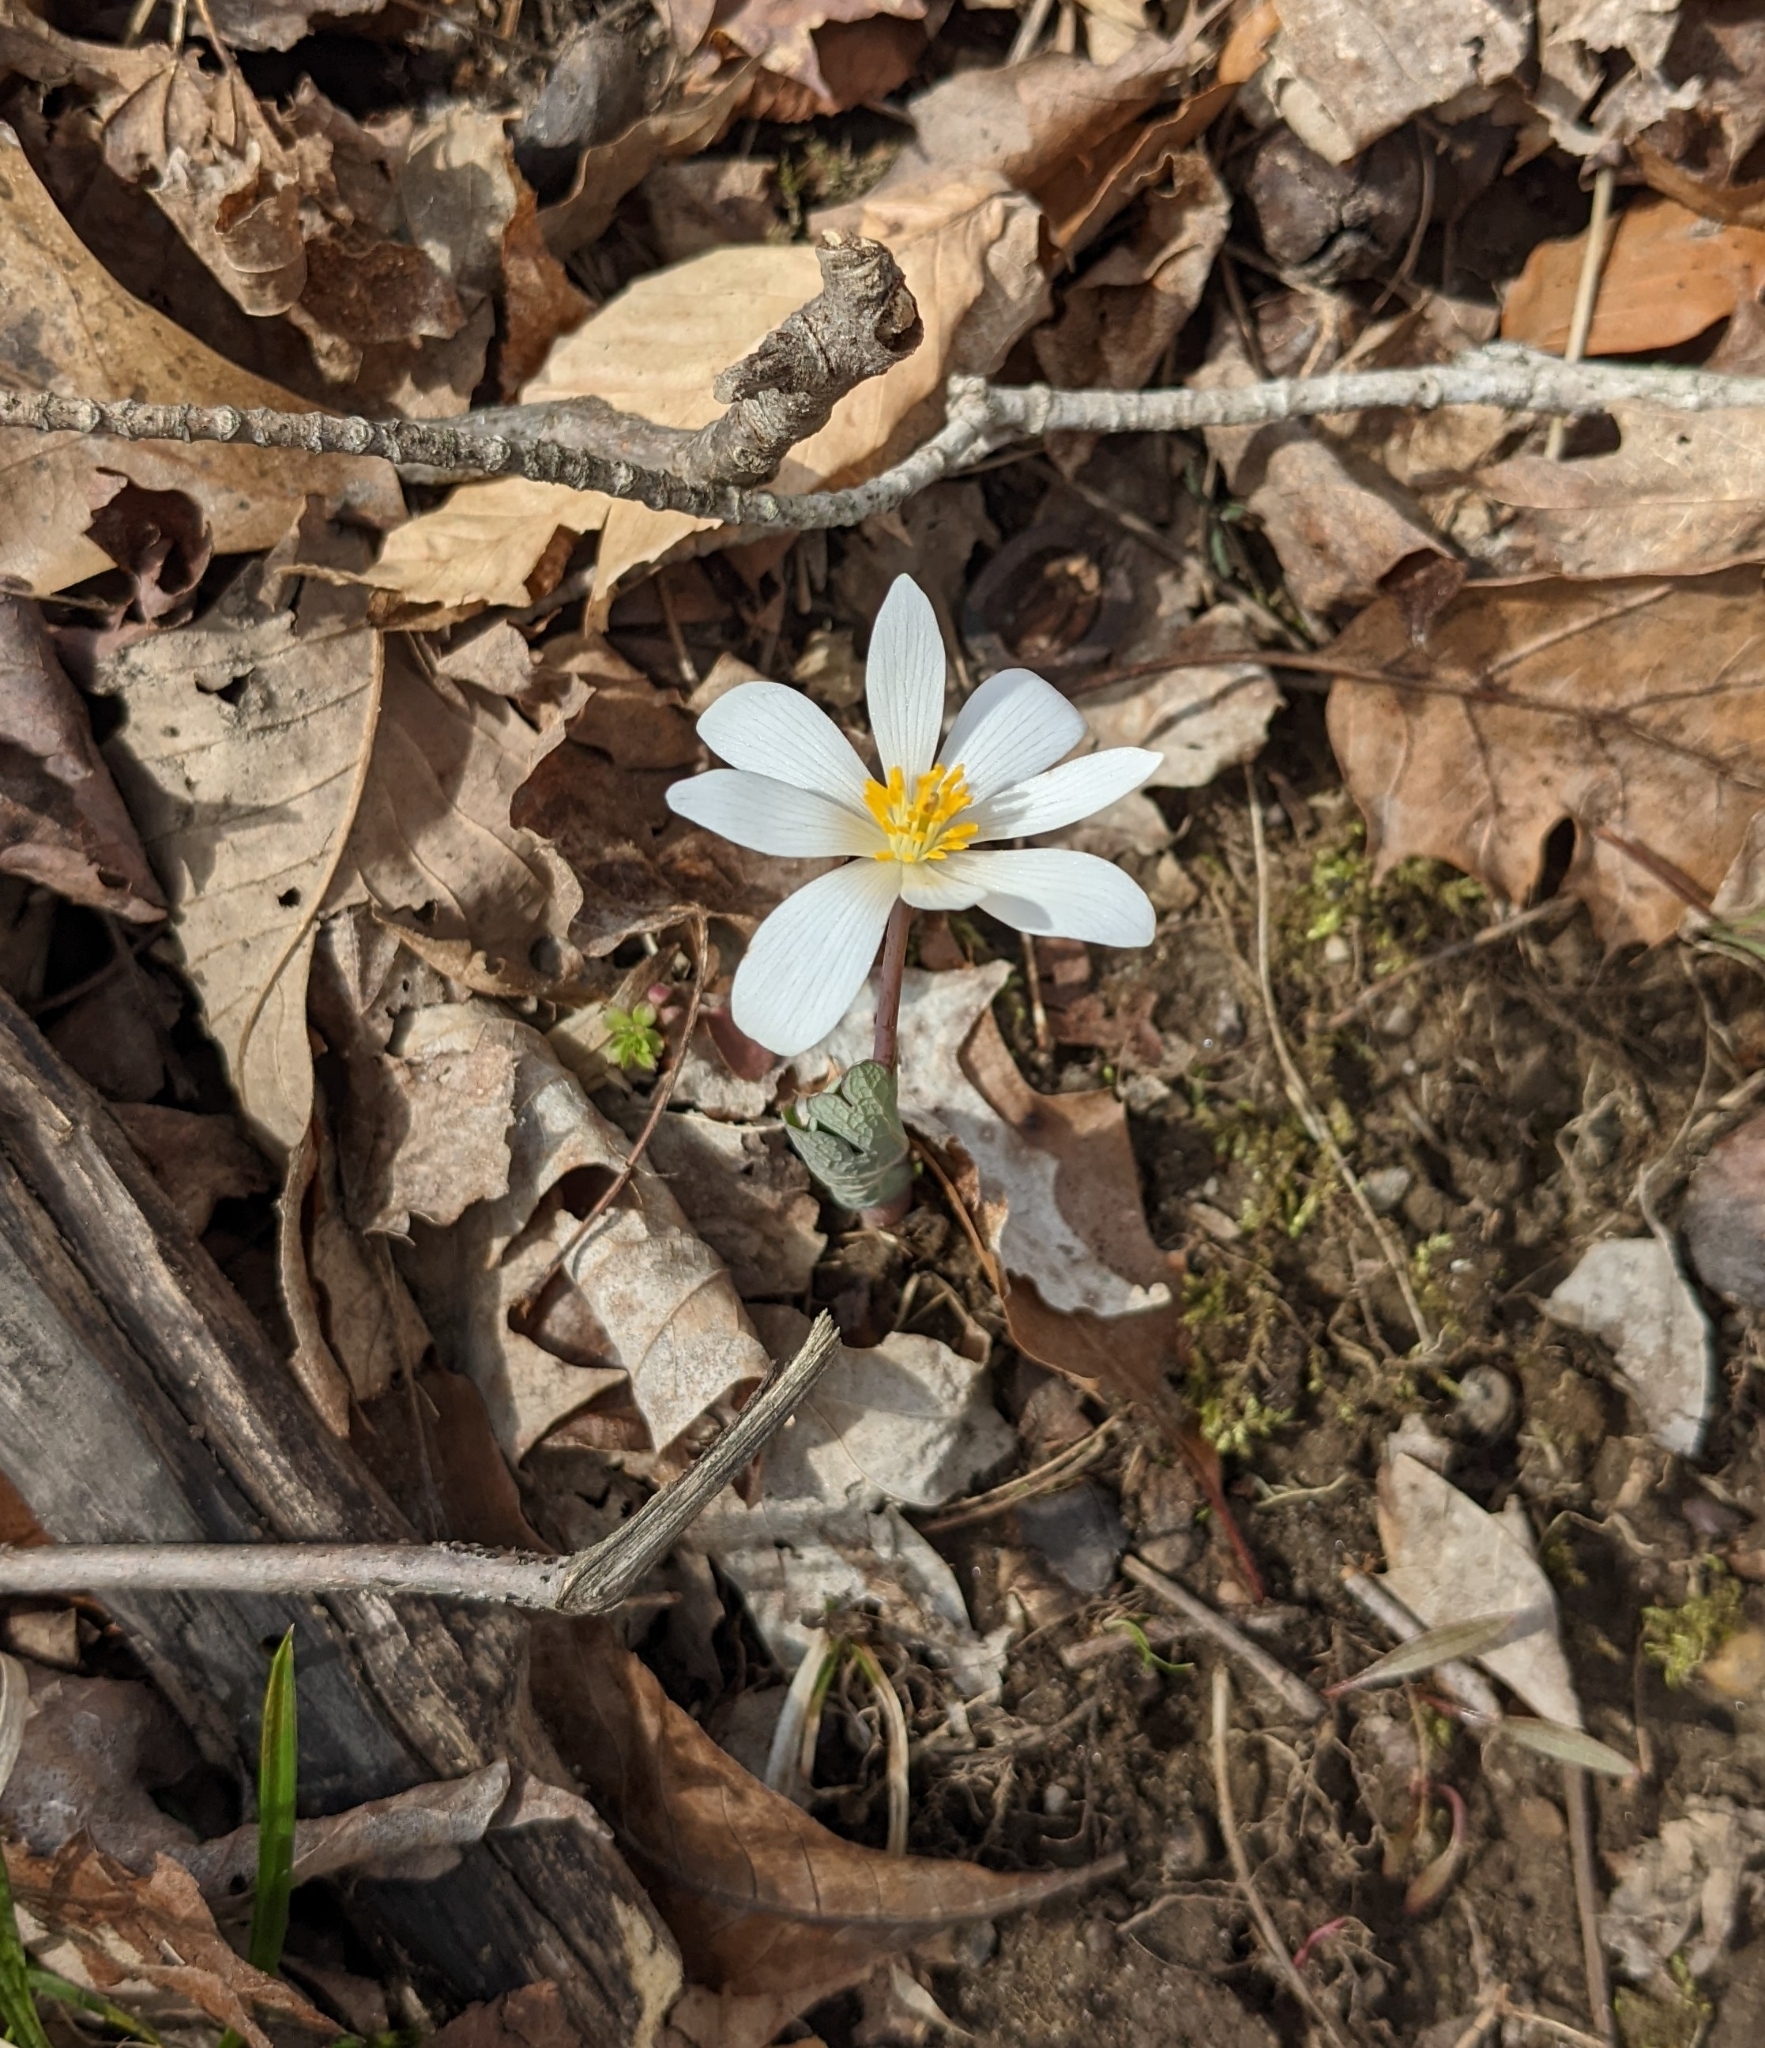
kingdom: Plantae
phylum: Tracheophyta
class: Magnoliopsida
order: Ranunculales
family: Papaveraceae
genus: Sanguinaria
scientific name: Sanguinaria canadensis
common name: Bloodroot
